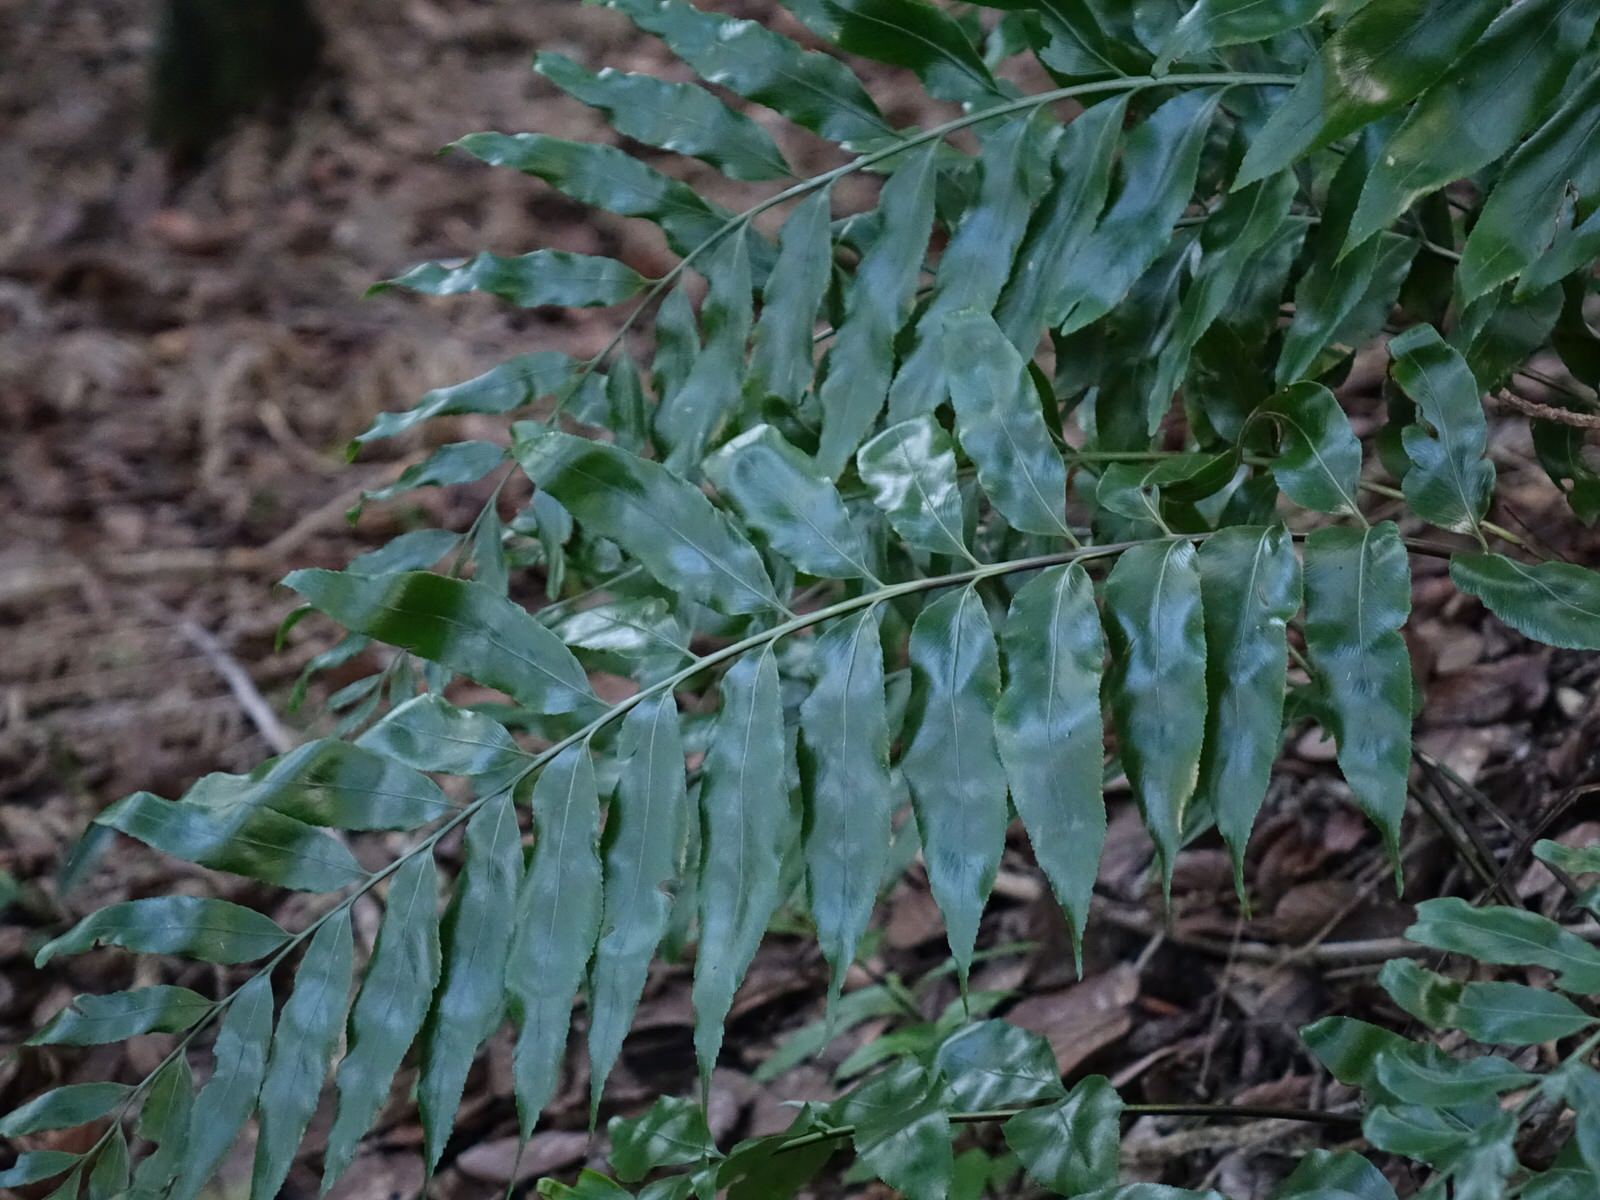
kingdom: Plantae
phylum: Tracheophyta
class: Polypodiopsida
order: Polypodiales
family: Aspleniaceae
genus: Asplenium
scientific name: Asplenium oblongifolium
